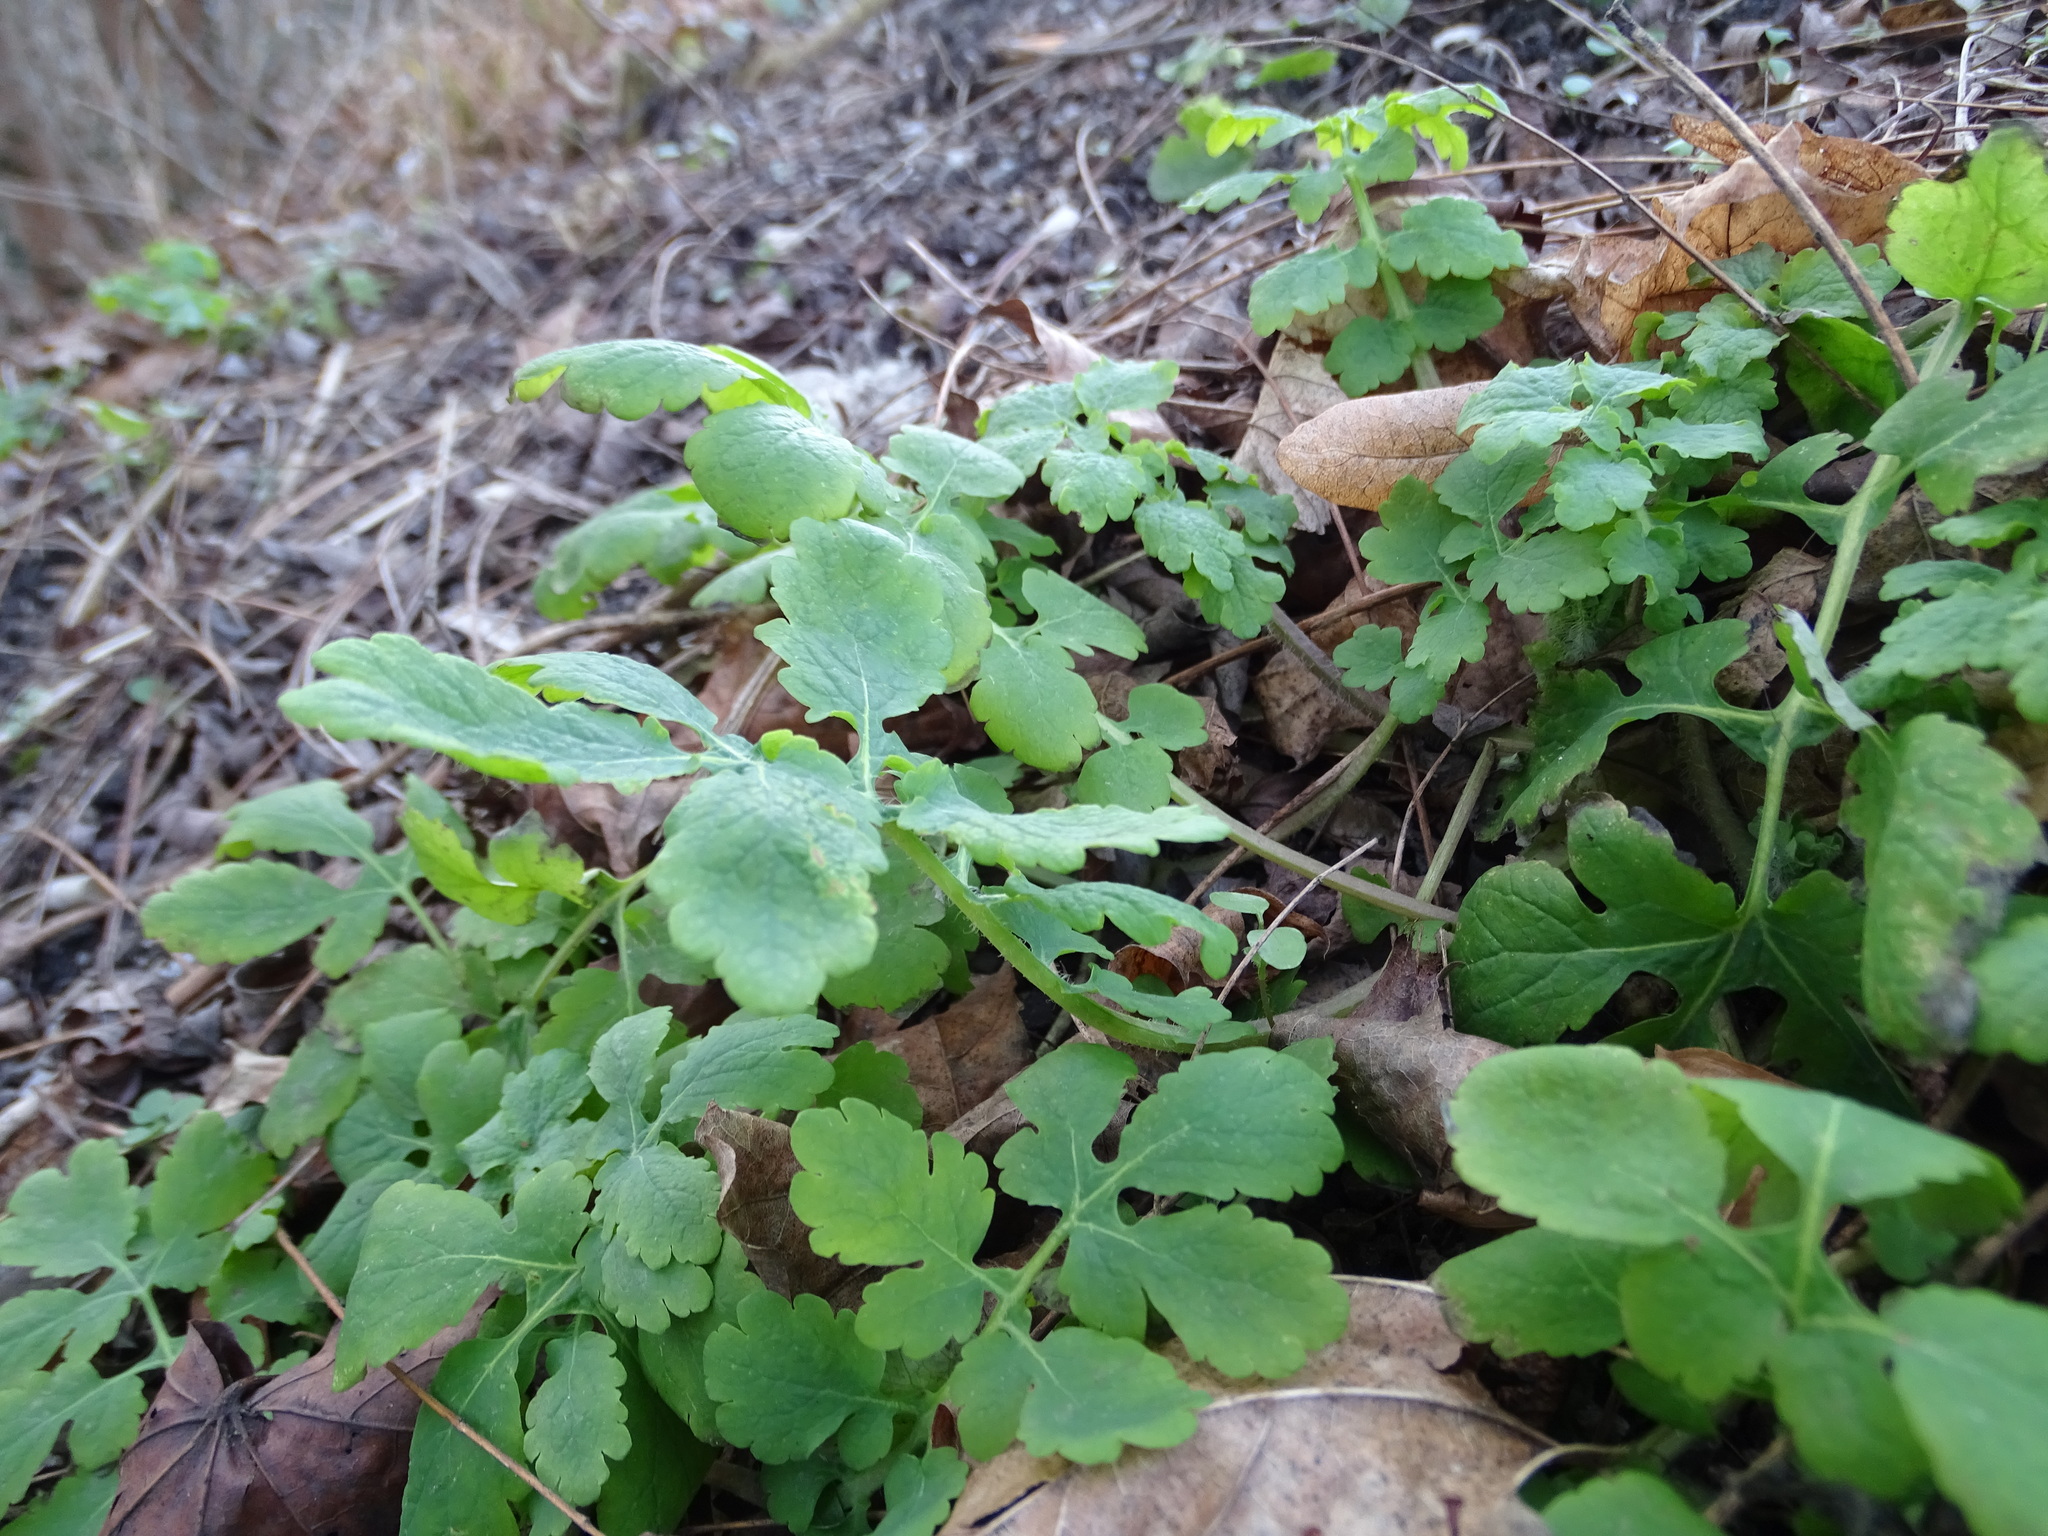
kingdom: Plantae
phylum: Tracheophyta
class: Magnoliopsida
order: Ranunculales
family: Papaveraceae
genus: Chelidonium
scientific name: Chelidonium majus
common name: Greater celandine
